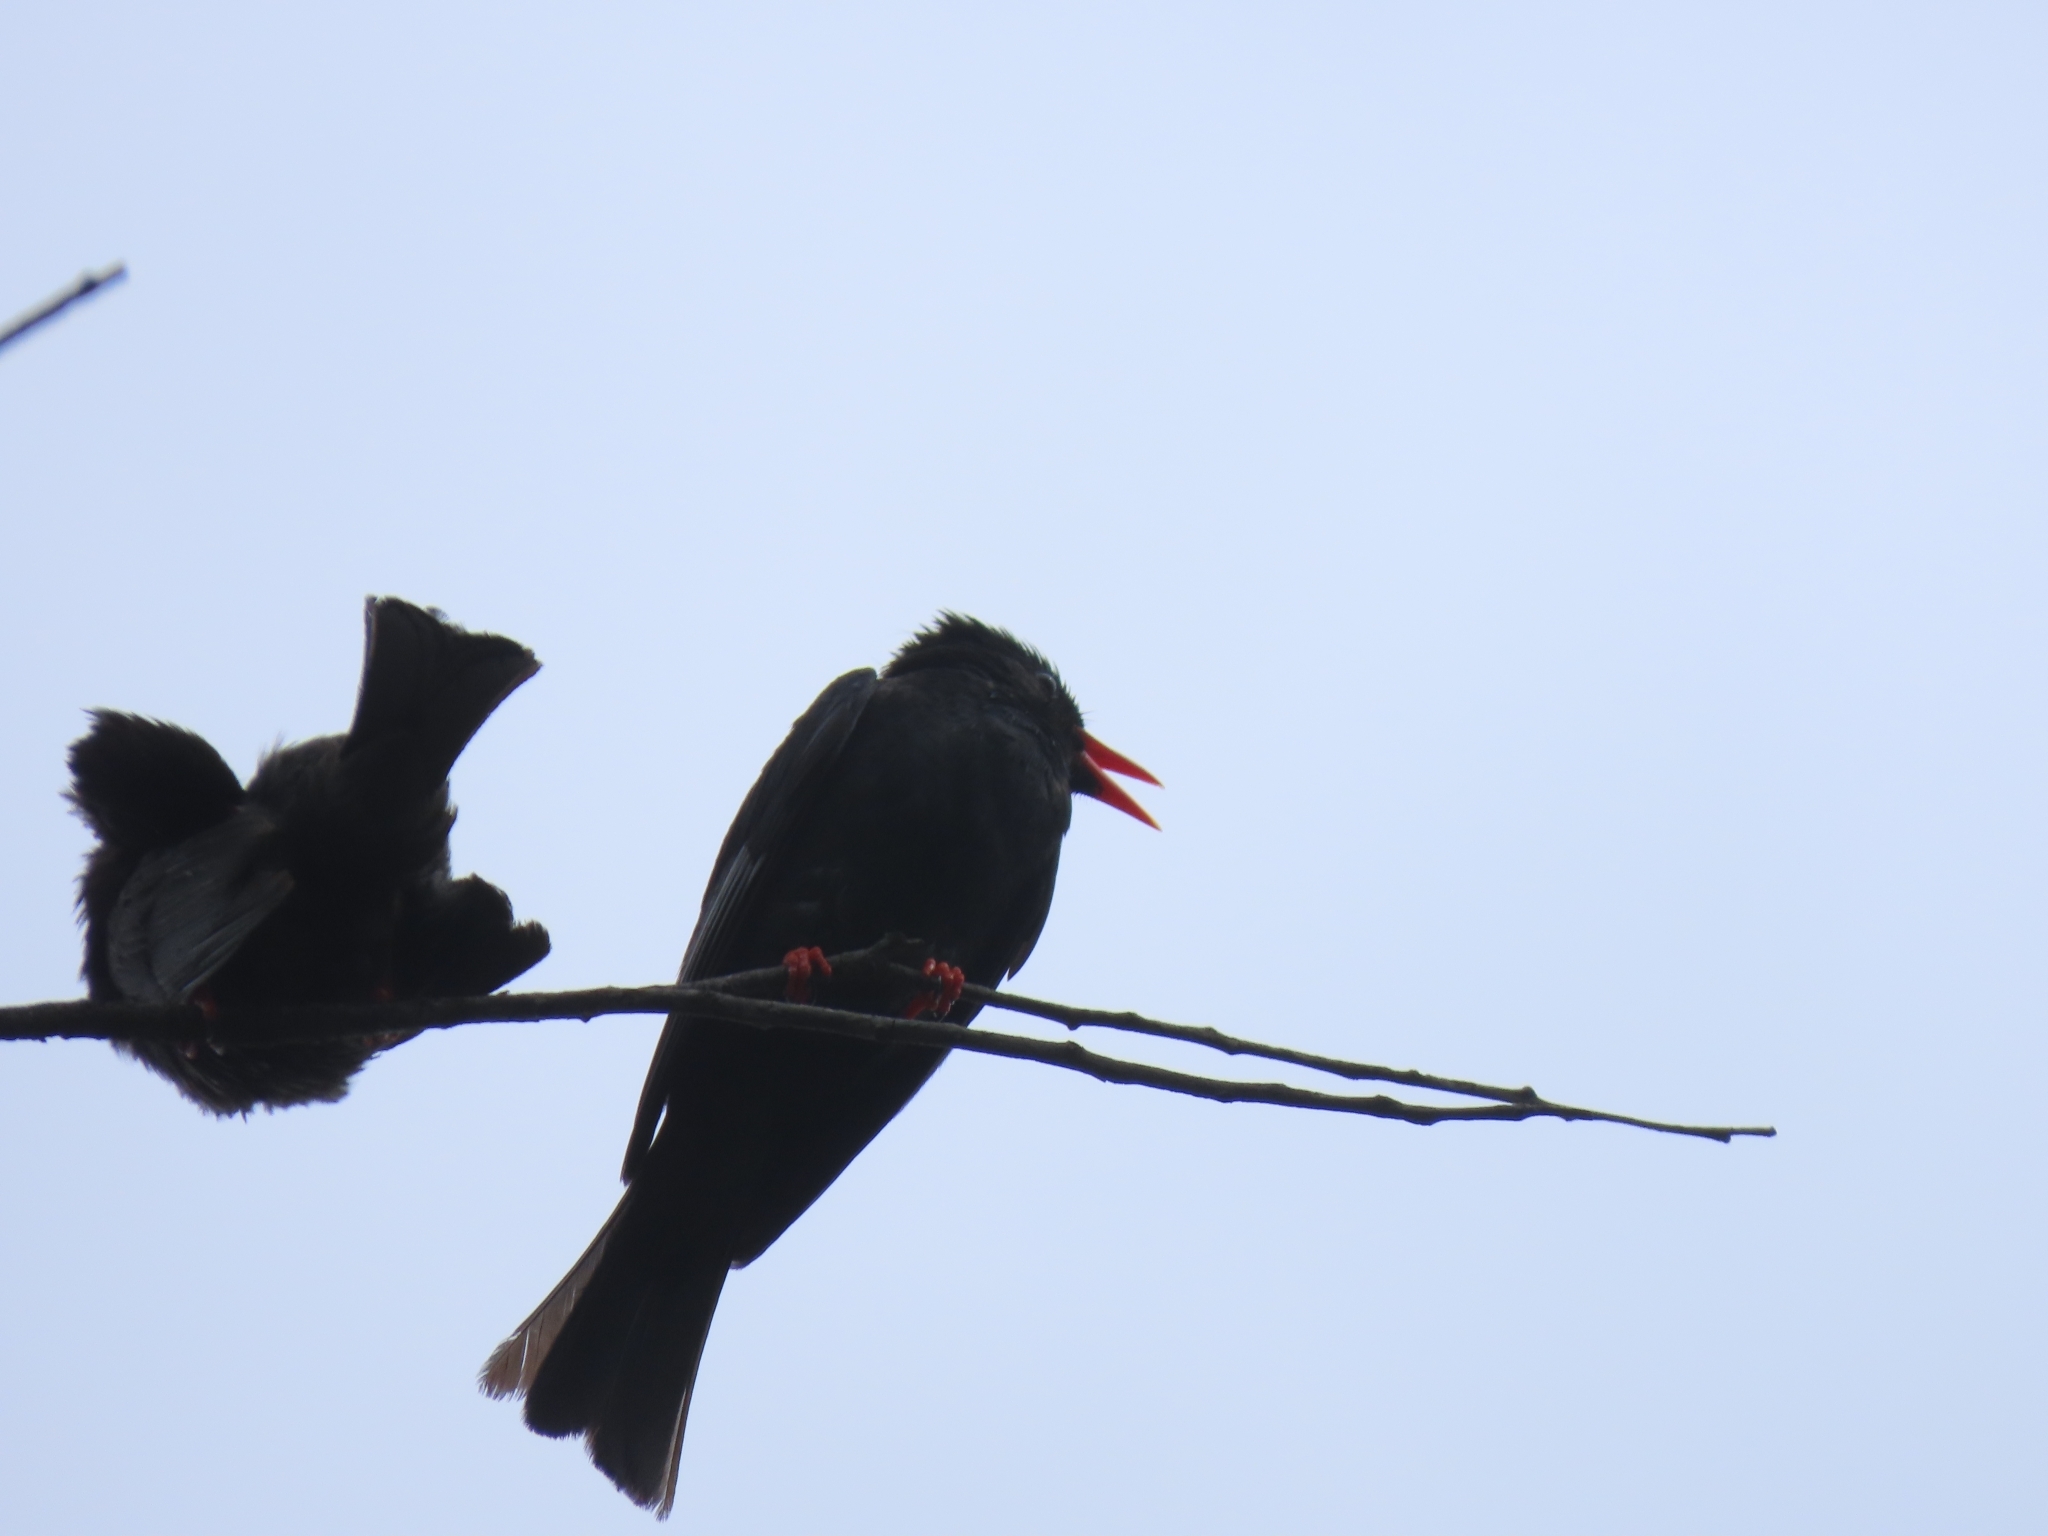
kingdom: Animalia
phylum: Chordata
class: Aves
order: Passeriformes
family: Pycnonotidae
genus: Hypsipetes
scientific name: Hypsipetes leucocephalus
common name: Black bulbul
